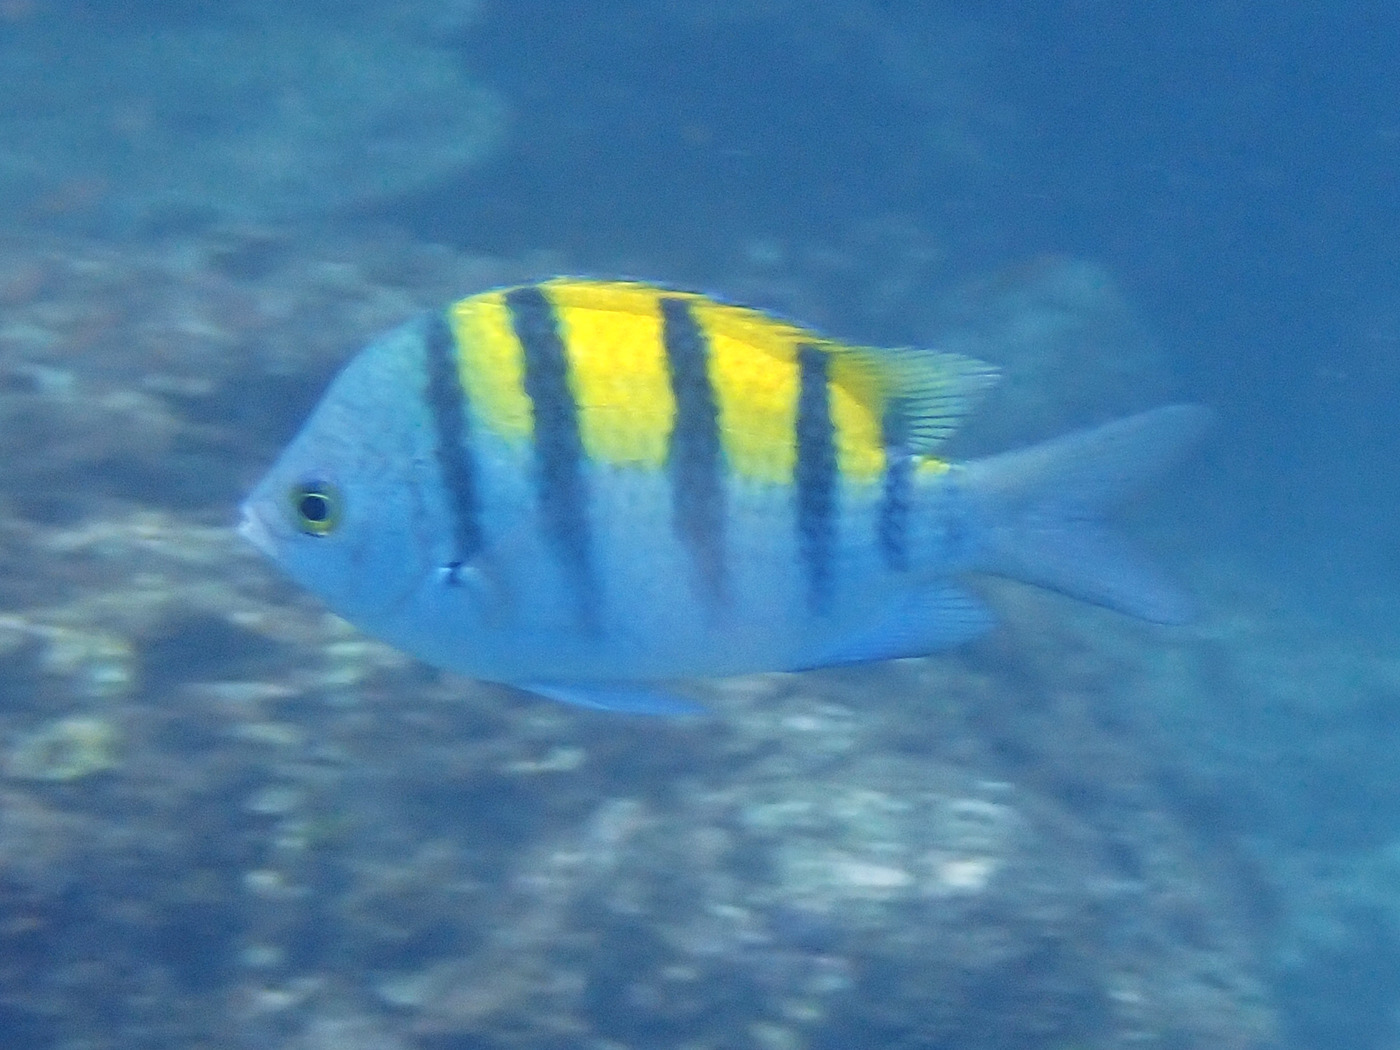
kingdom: Animalia
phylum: Chordata
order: Perciformes
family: Pomacentridae
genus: Abudefduf
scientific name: Abudefduf troschelii
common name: Panamic sergeant major
